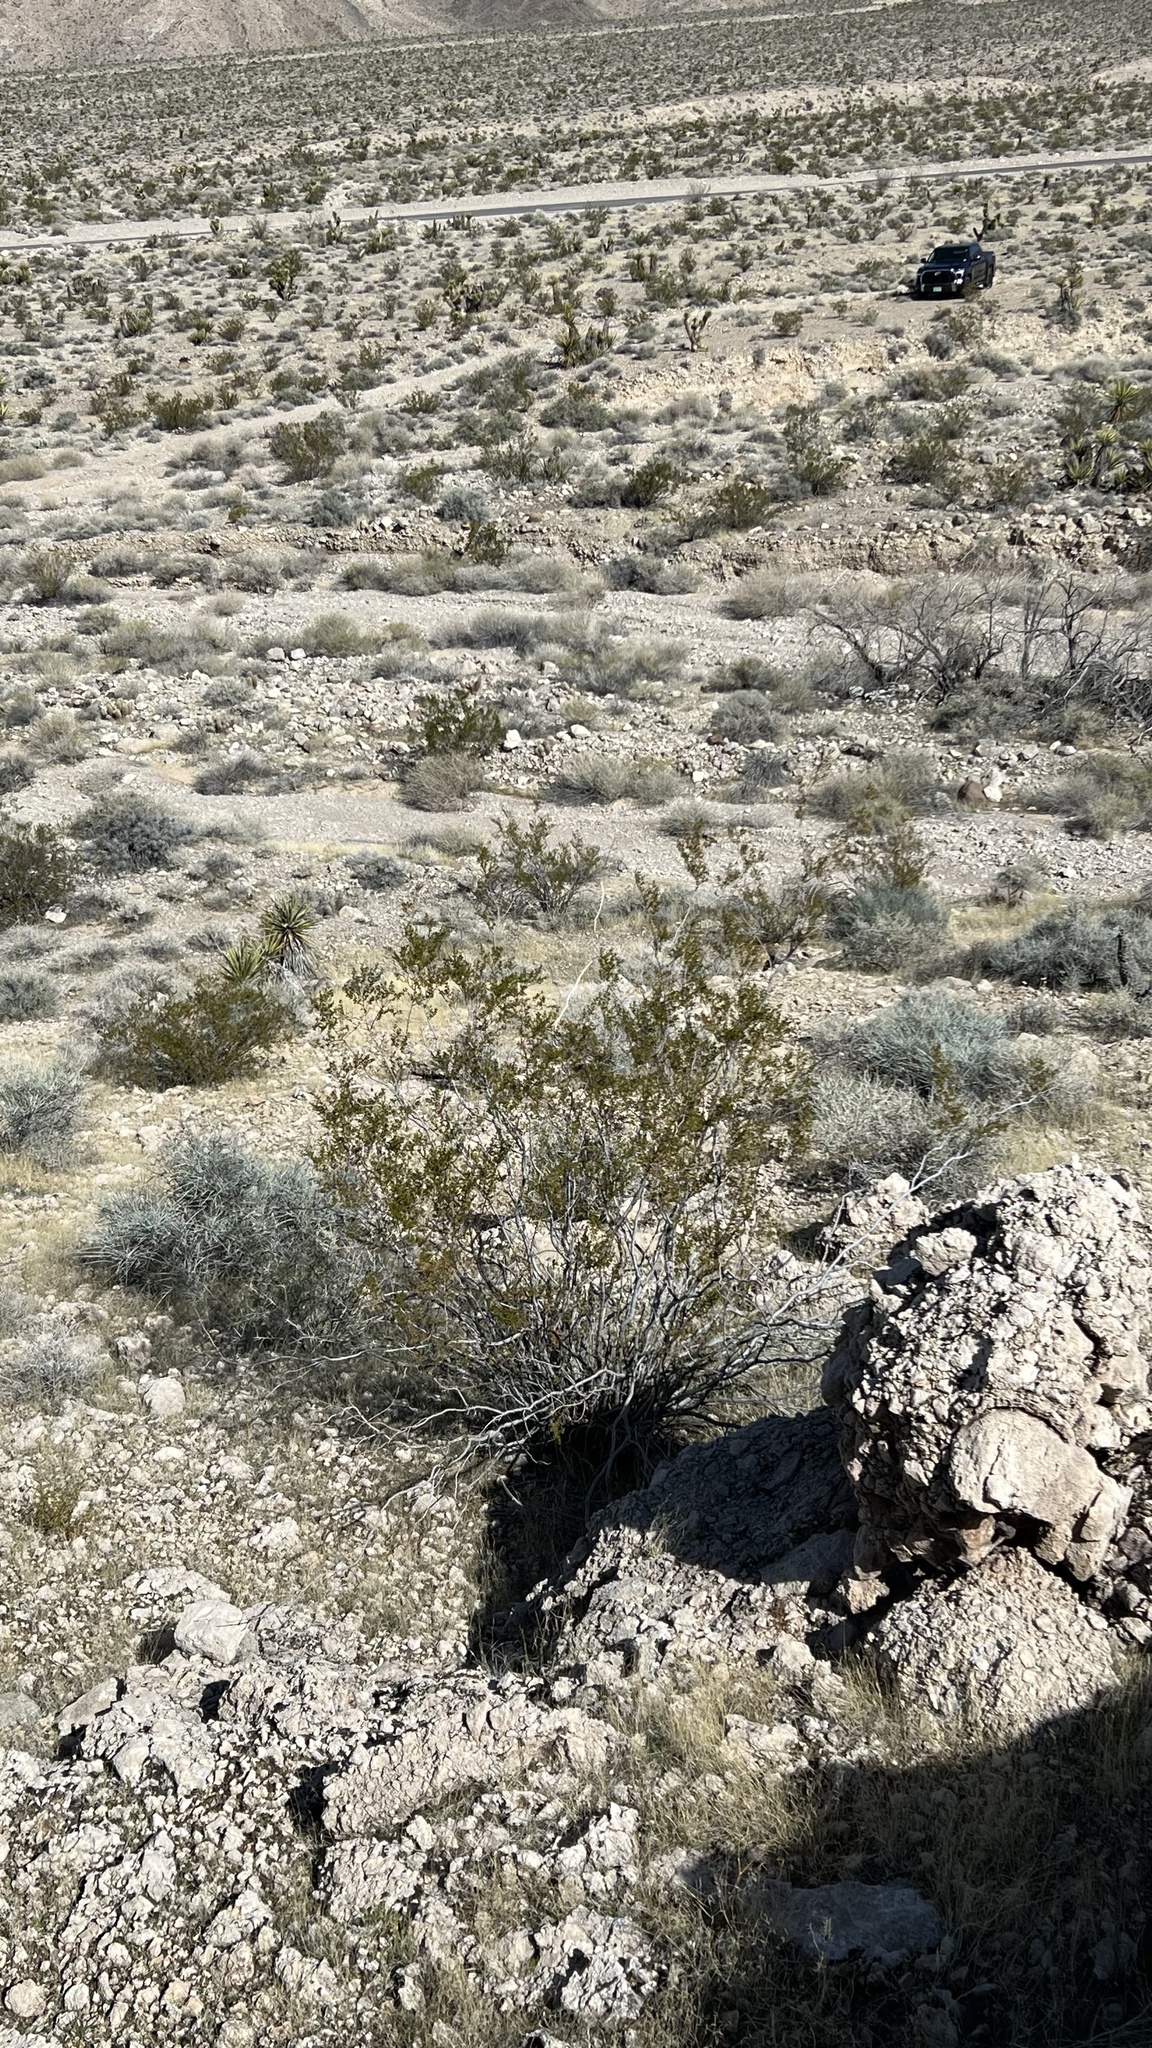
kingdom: Plantae
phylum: Tracheophyta
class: Magnoliopsida
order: Zygophyllales
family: Zygophyllaceae
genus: Larrea
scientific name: Larrea tridentata
